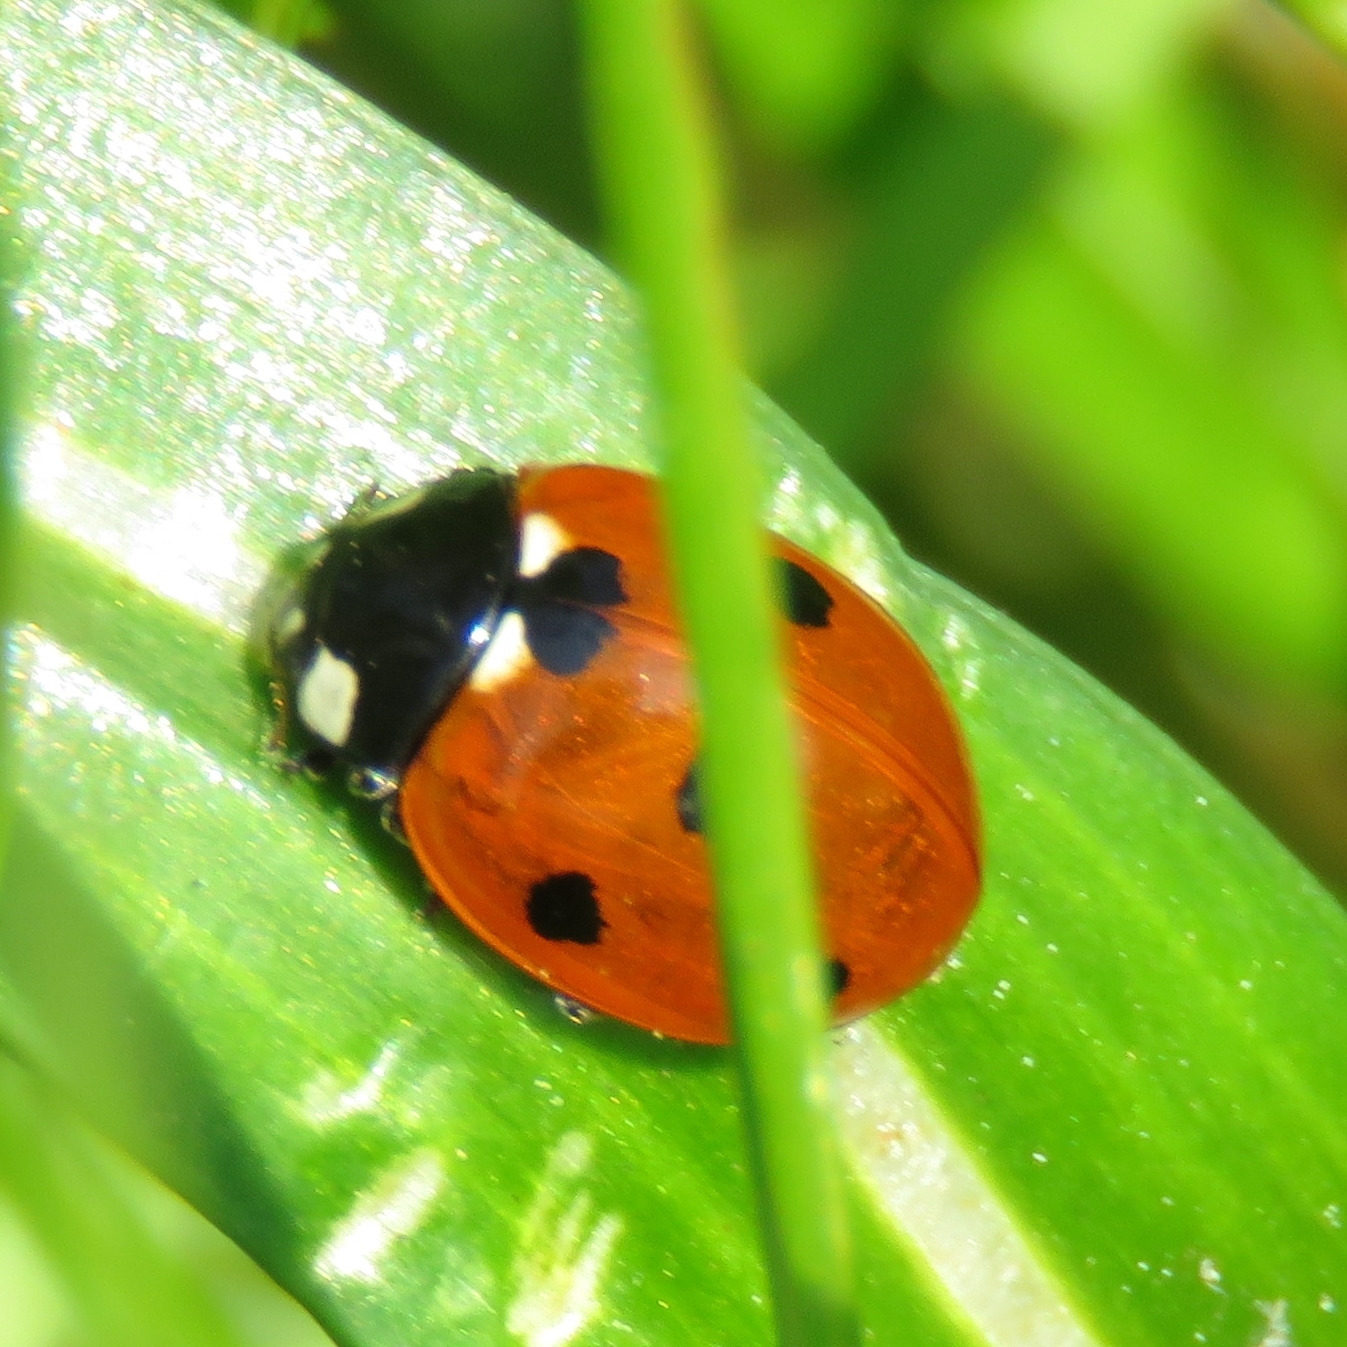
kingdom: Animalia
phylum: Arthropoda
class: Insecta
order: Coleoptera
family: Coccinellidae
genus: Coccinella
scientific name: Coccinella septempunctata
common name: Sevenspotted lady beetle
